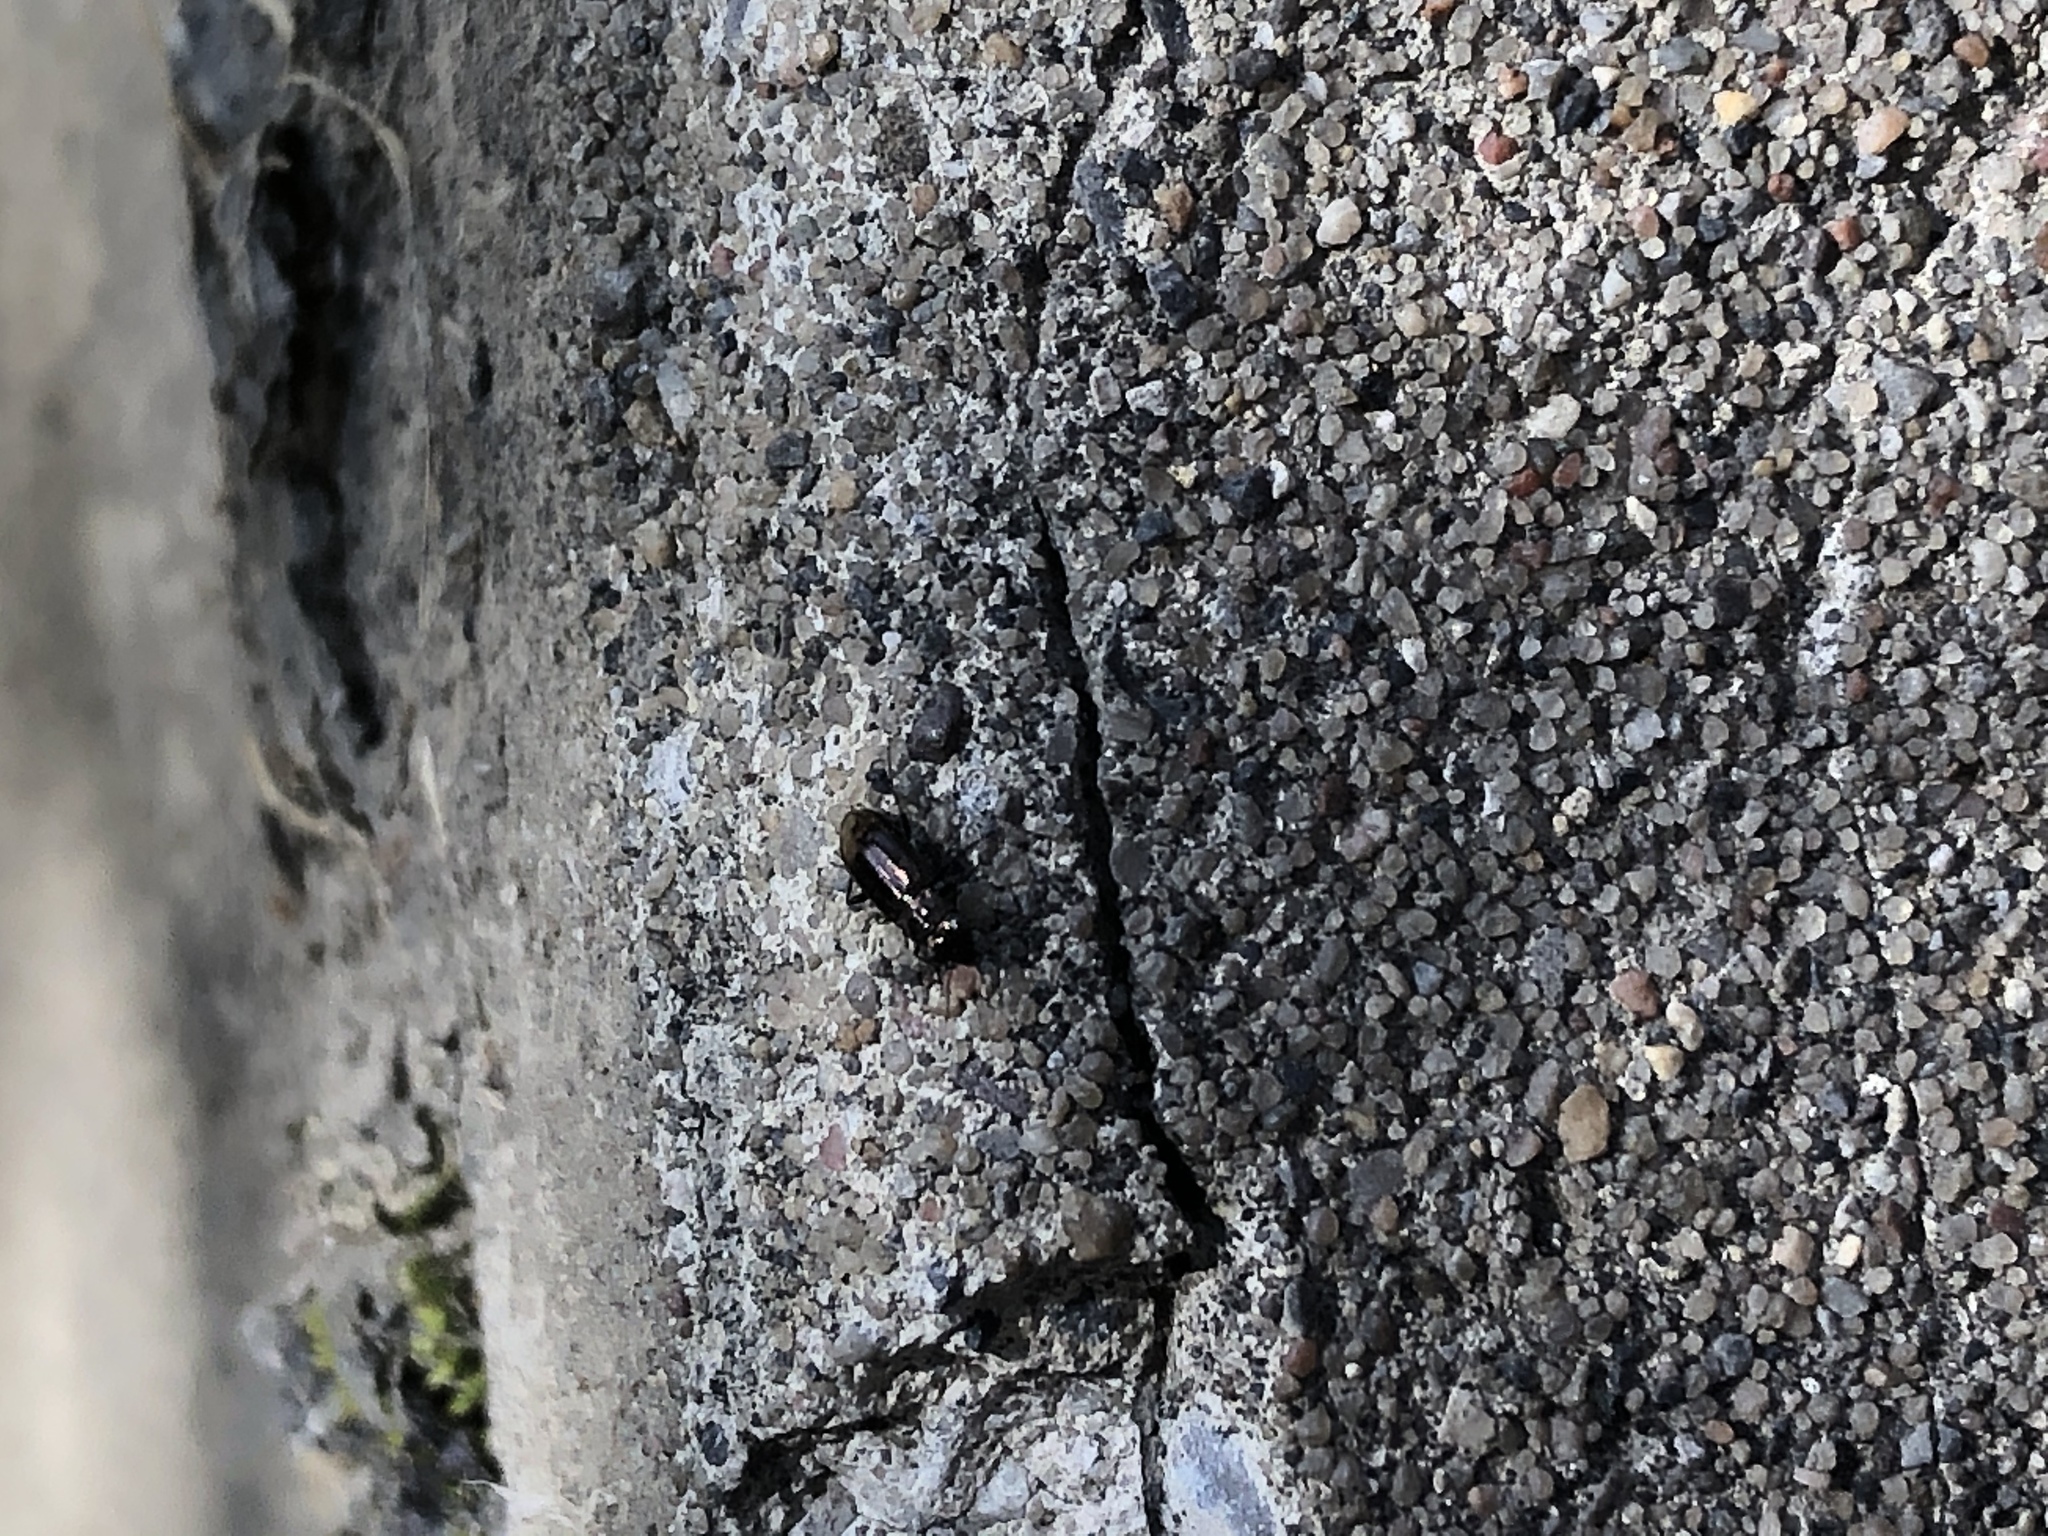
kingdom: Animalia
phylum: Arthropoda
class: Insecta
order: Coleoptera
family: Carabidae
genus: Notiophilus
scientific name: Notiophilus
